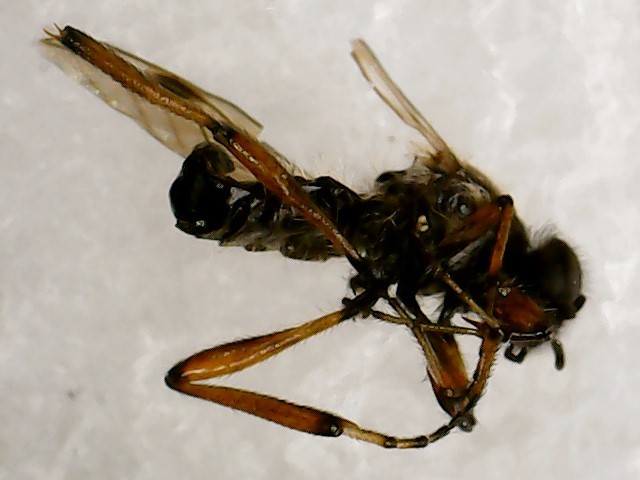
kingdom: Animalia
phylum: Arthropoda
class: Insecta
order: Diptera
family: Bibionidae
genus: Bibio
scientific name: Bibio articulatus
